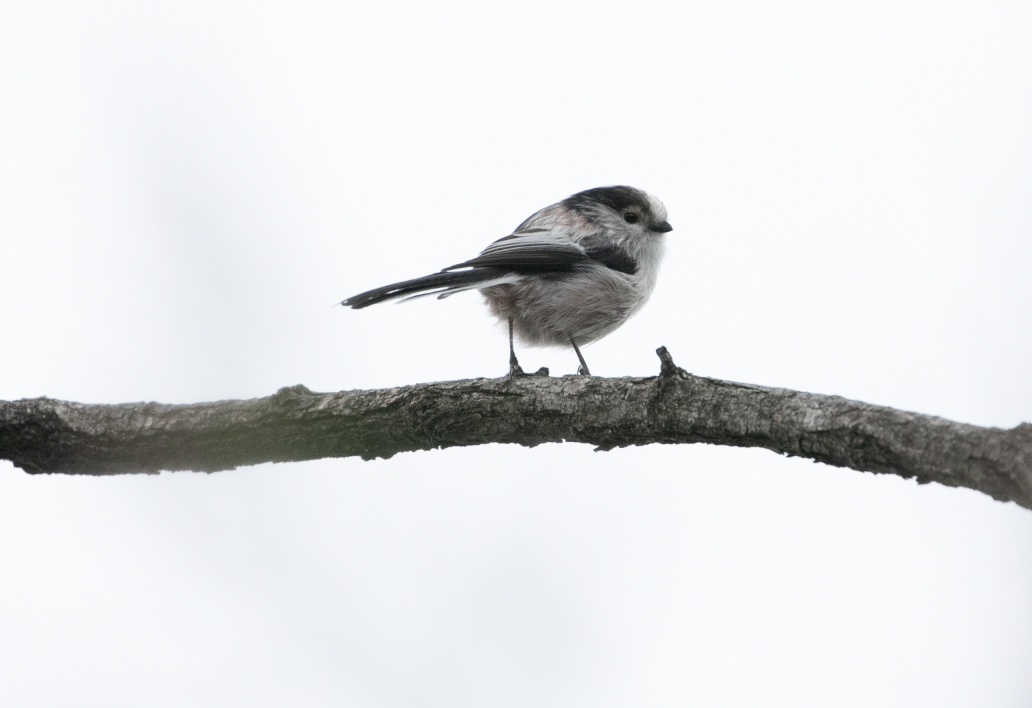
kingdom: Animalia
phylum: Chordata
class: Aves
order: Passeriformes
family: Aegithalidae
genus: Aegithalos
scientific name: Aegithalos caudatus
